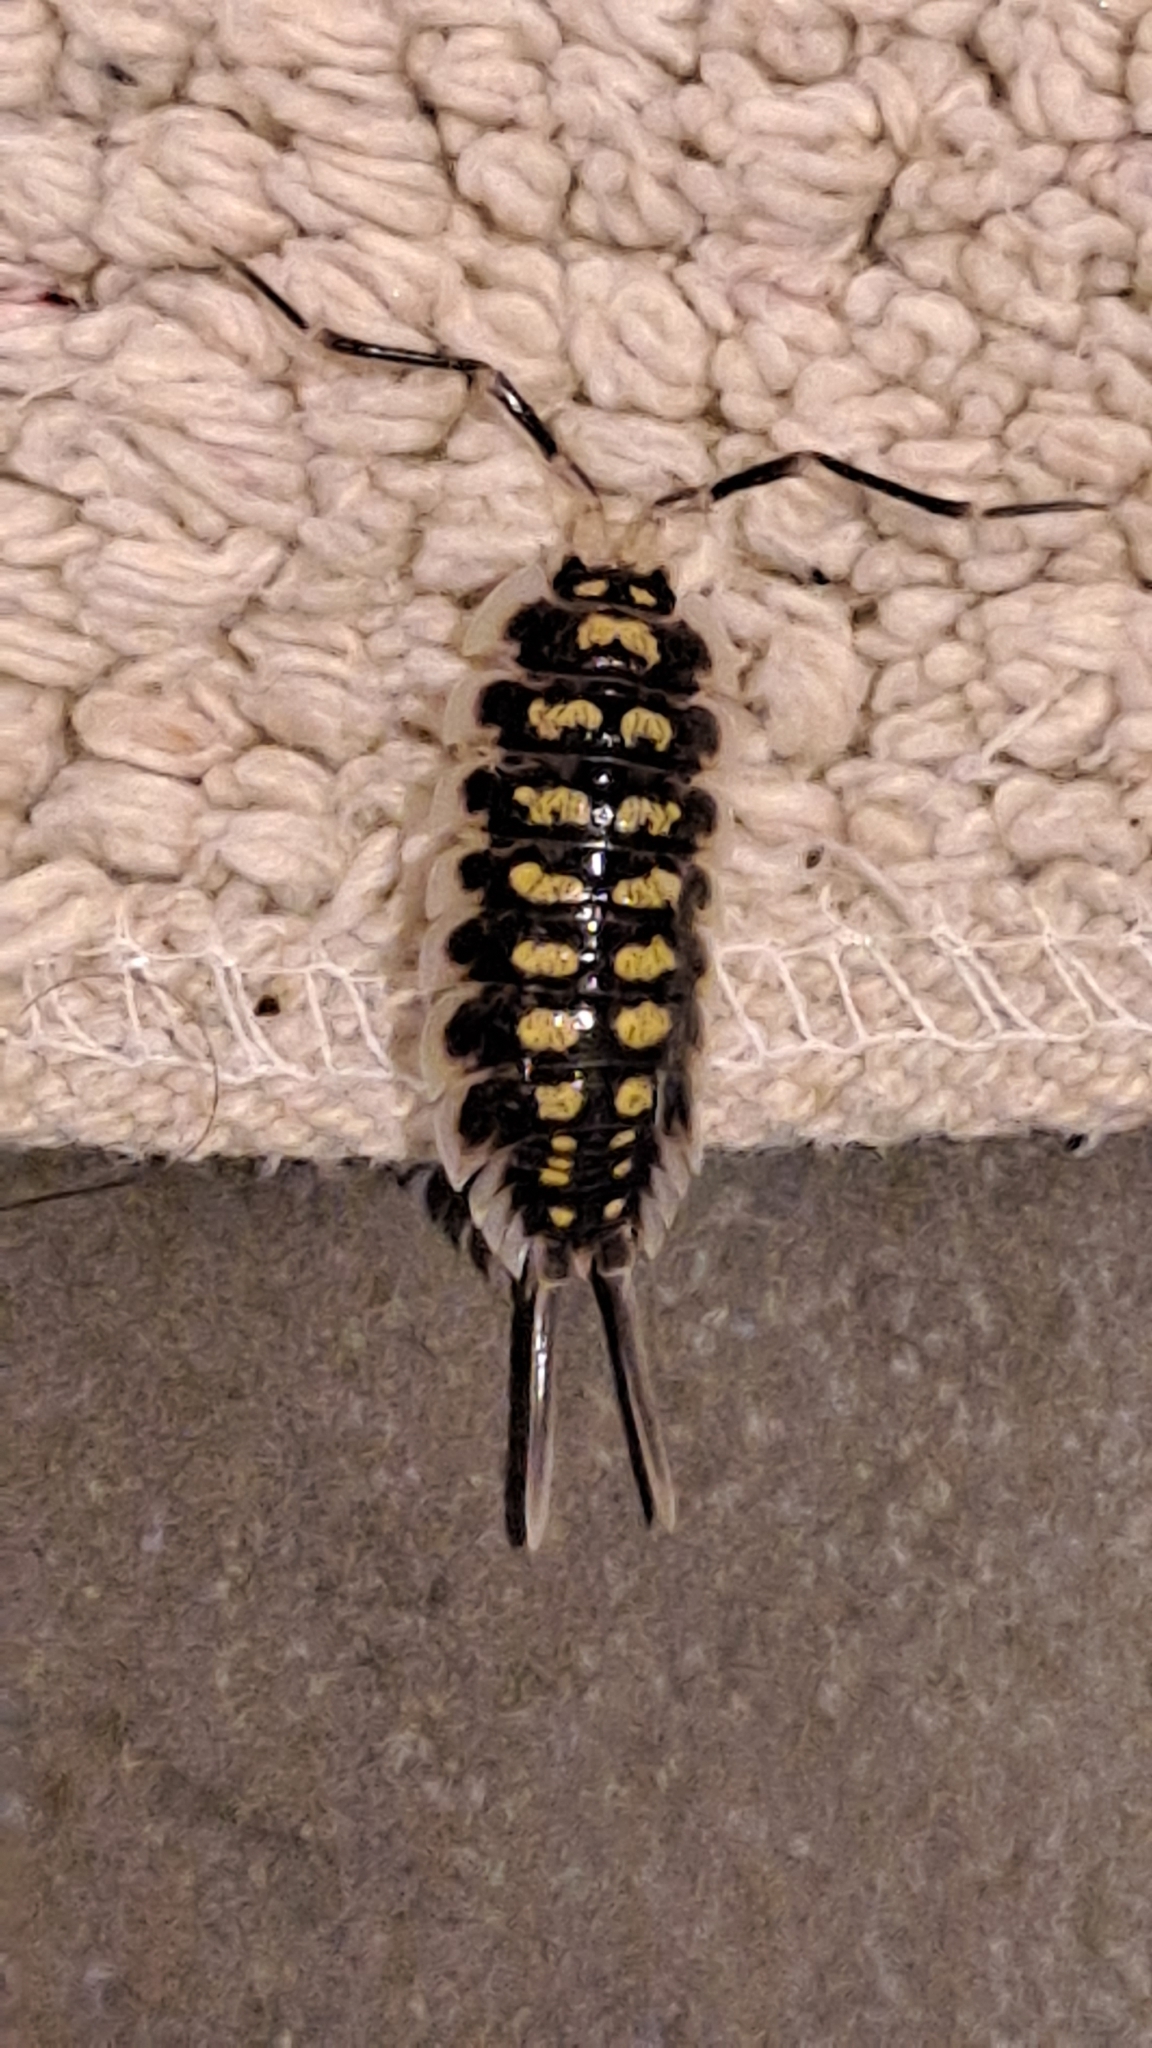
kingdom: Animalia
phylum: Arthropoda
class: Malacostraca
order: Isopoda
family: Porcellionidae
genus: Porcellio
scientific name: Porcellio haasi
